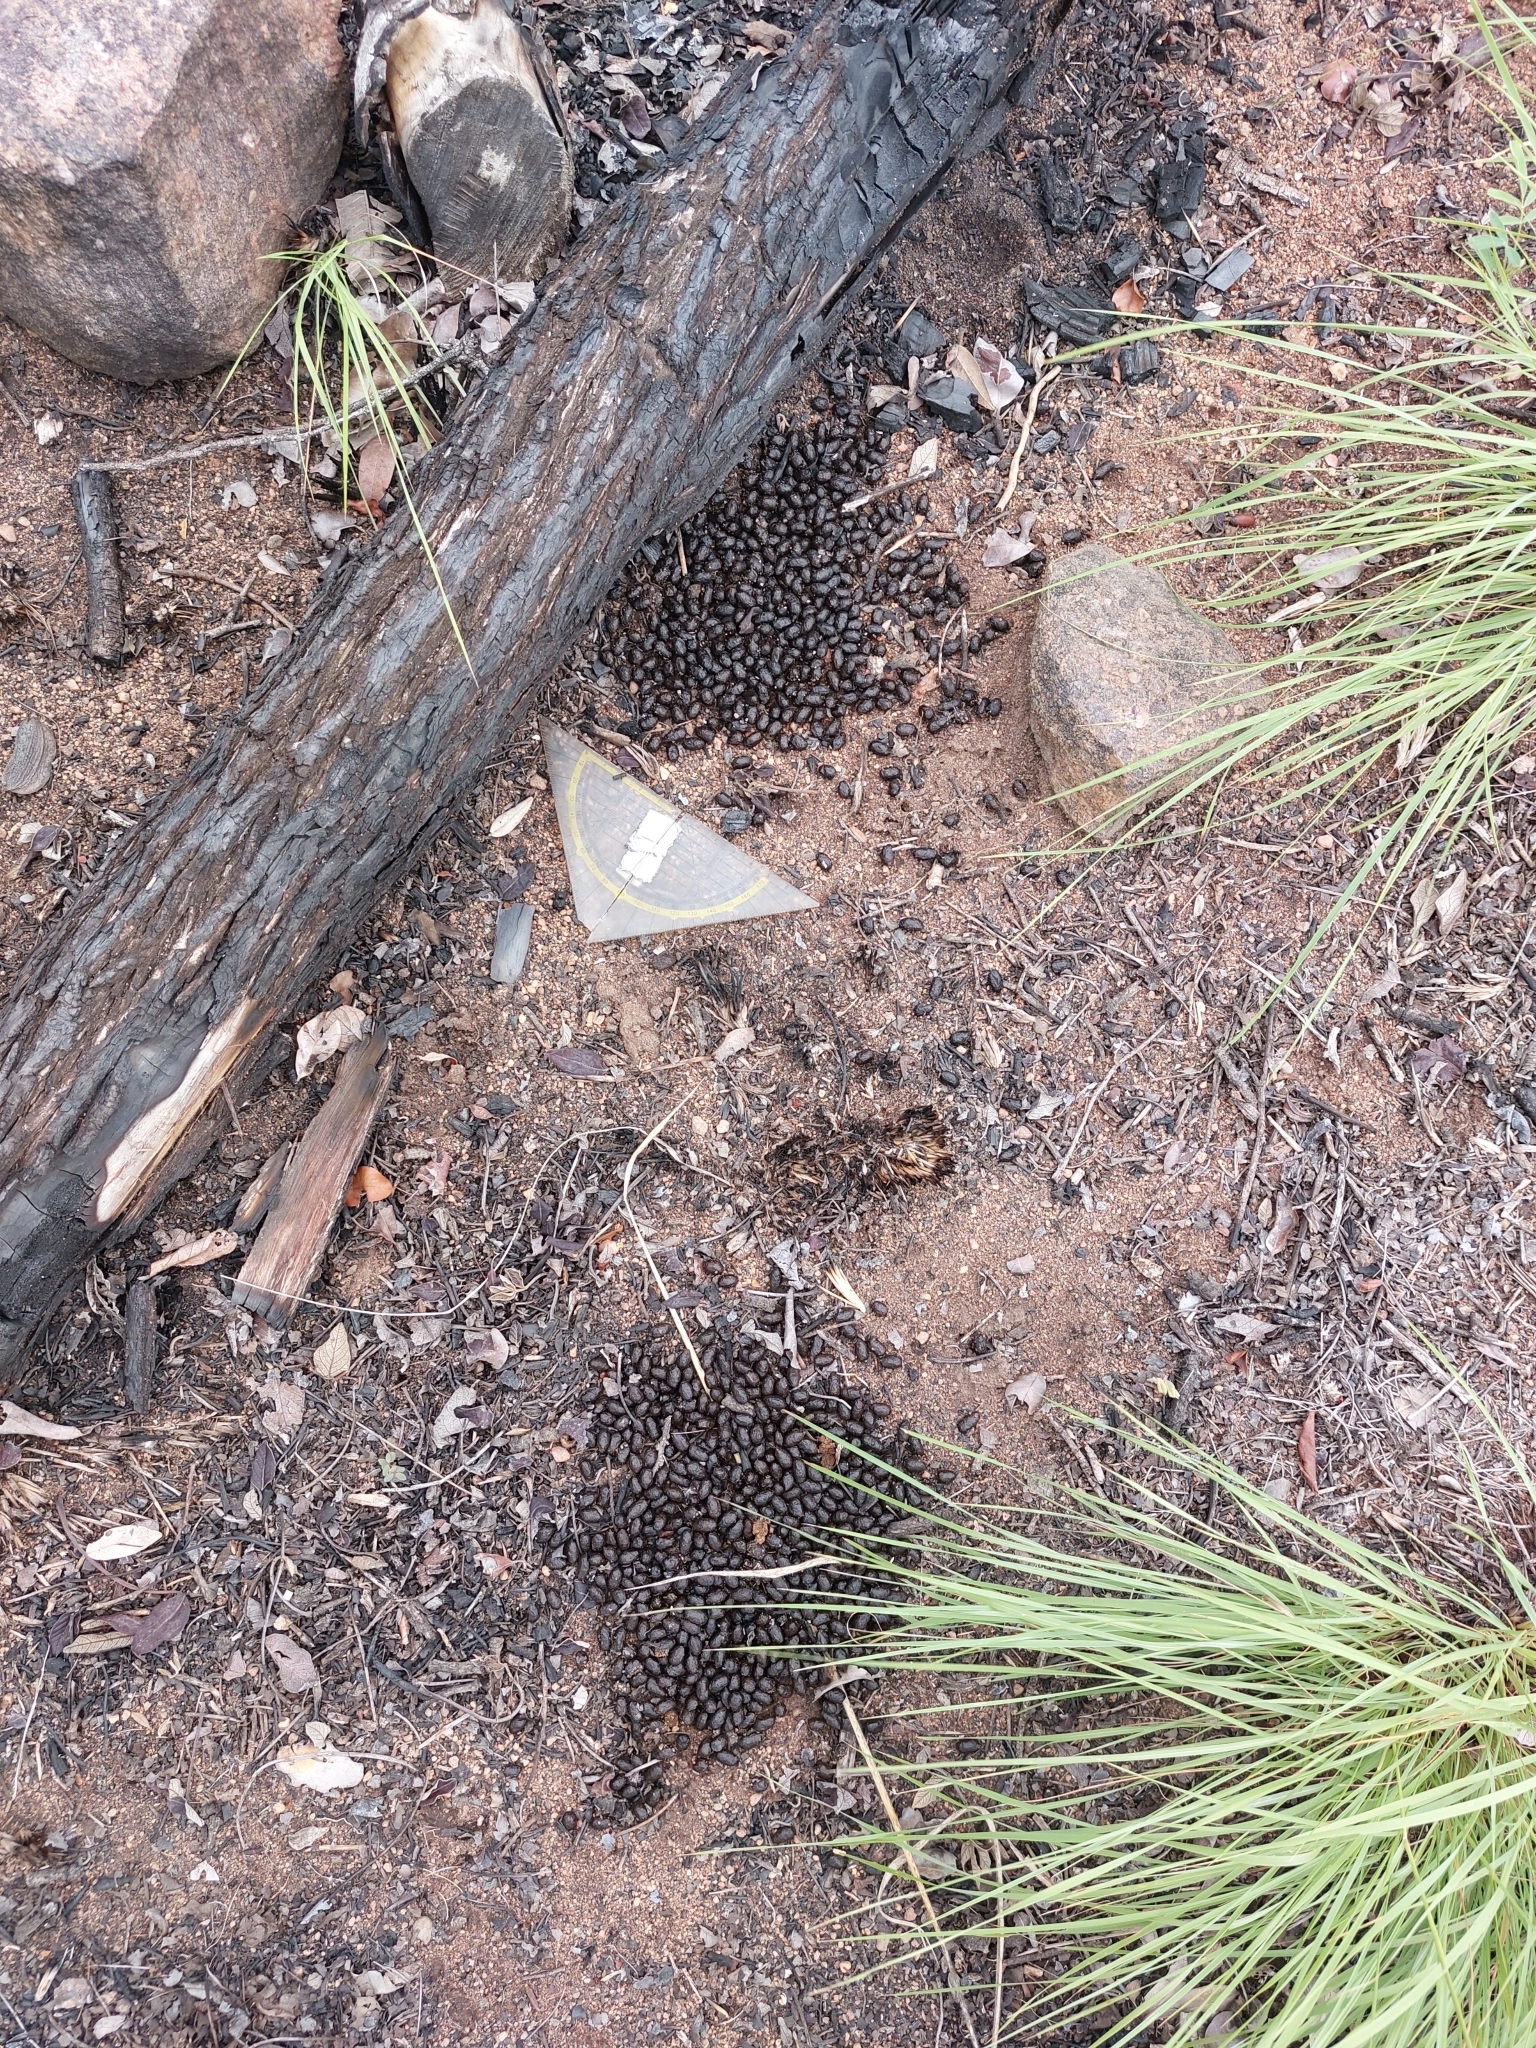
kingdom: Animalia
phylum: Chordata
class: Mammalia
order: Artiodactyla
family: Bovidae
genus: Sylvicapra
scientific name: Sylvicapra grimmia
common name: Bush duiker
